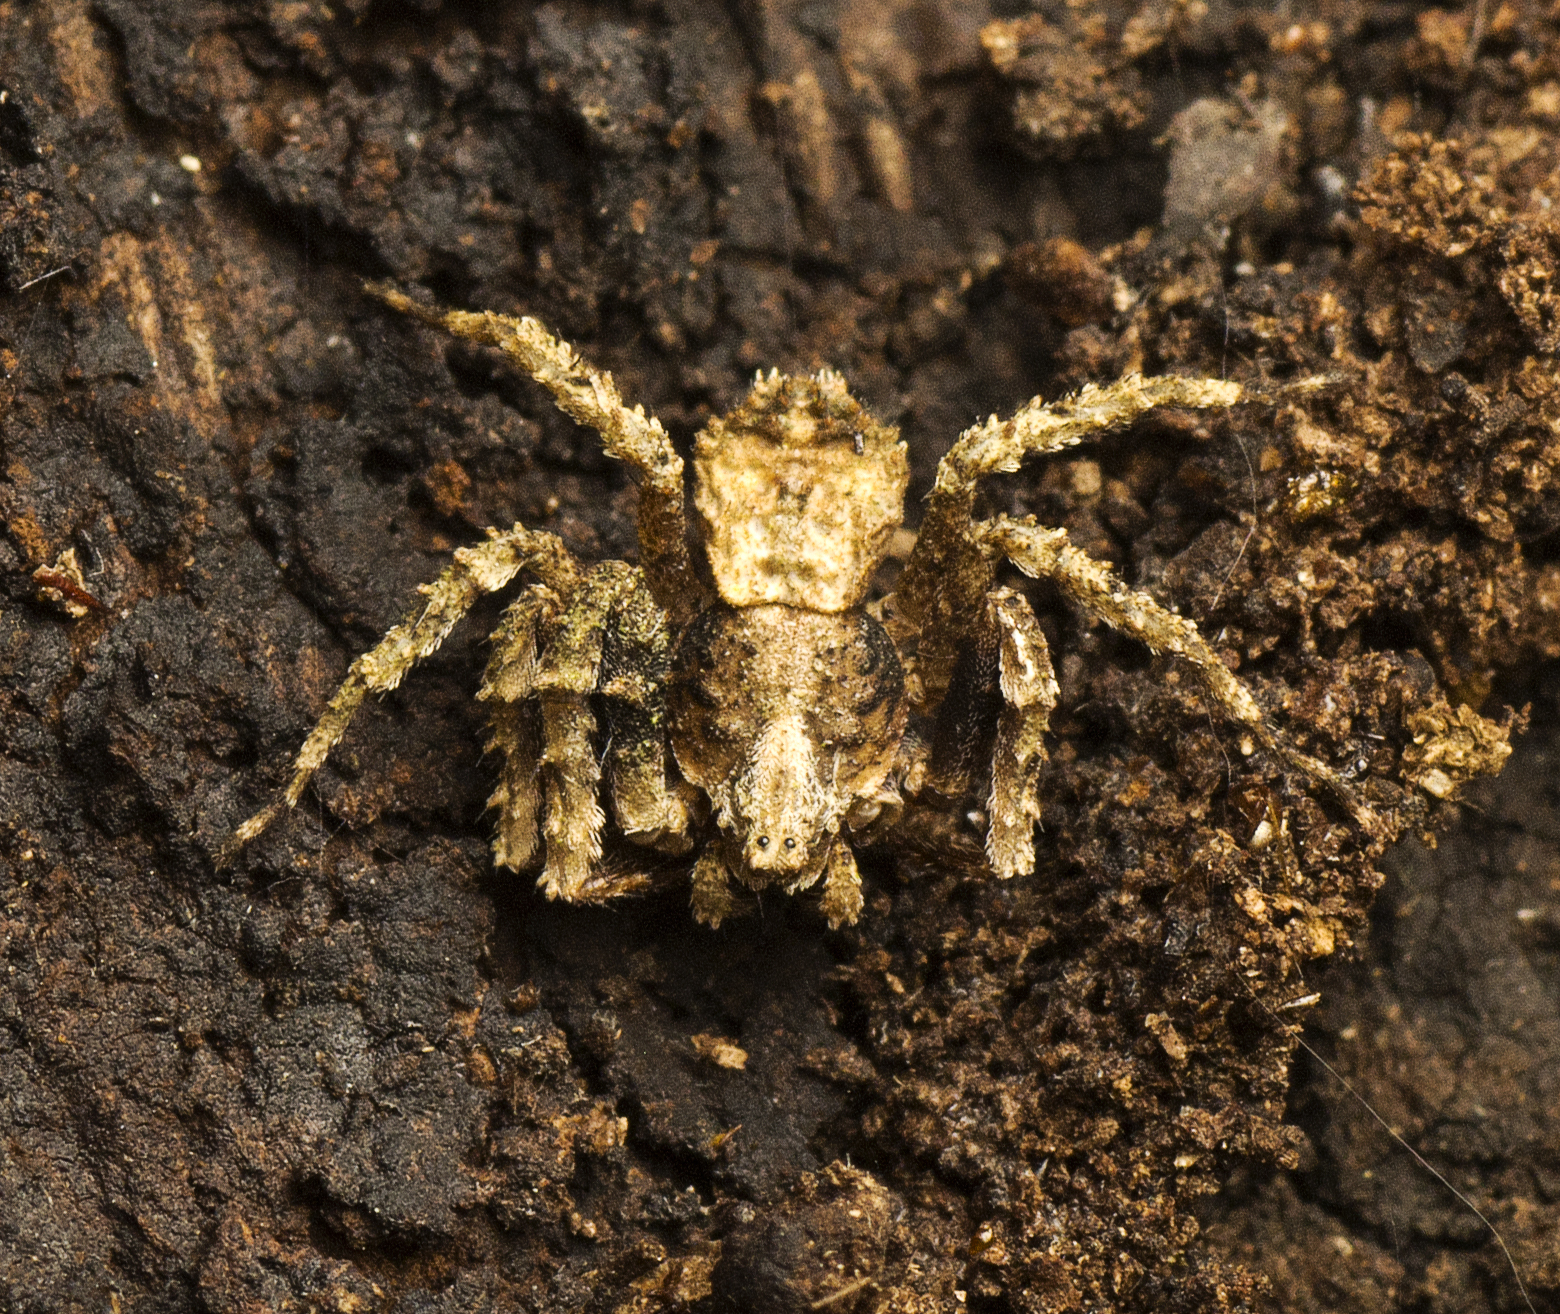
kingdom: Animalia
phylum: Arthropoda
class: Arachnida
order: Araneae
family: Thomisidae
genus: Stephanopis
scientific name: Stephanopis altifrons
